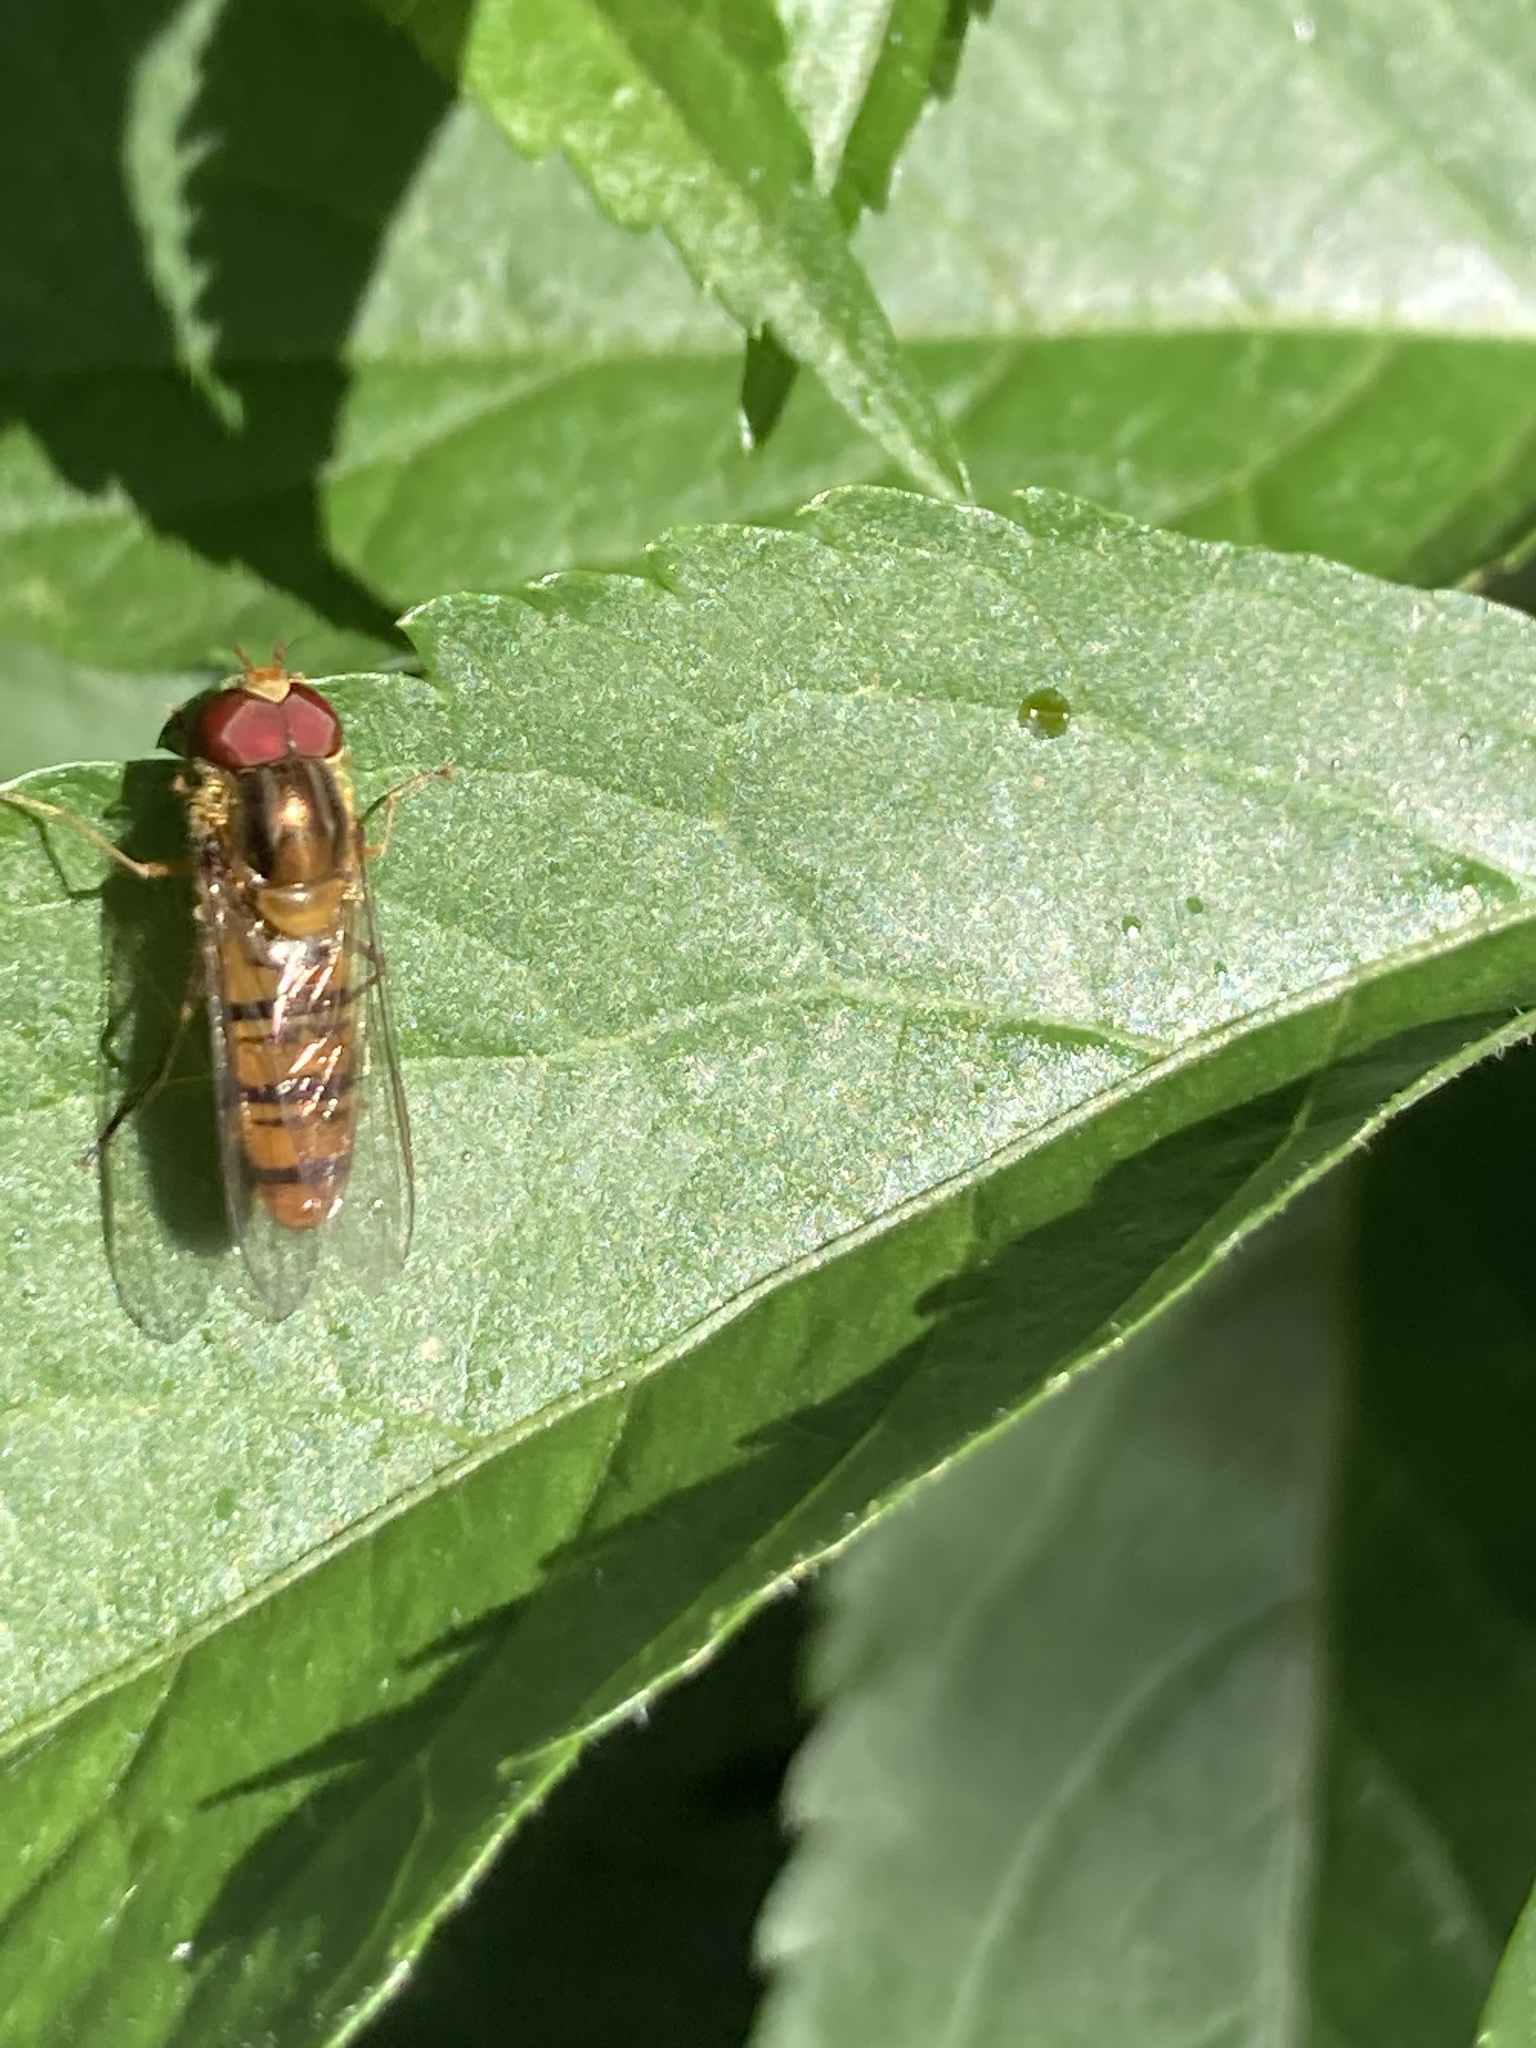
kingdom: Animalia
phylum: Arthropoda
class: Insecta
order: Diptera
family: Syrphidae
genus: Episyrphus
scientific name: Episyrphus balteatus
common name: Marmalade hoverfly
